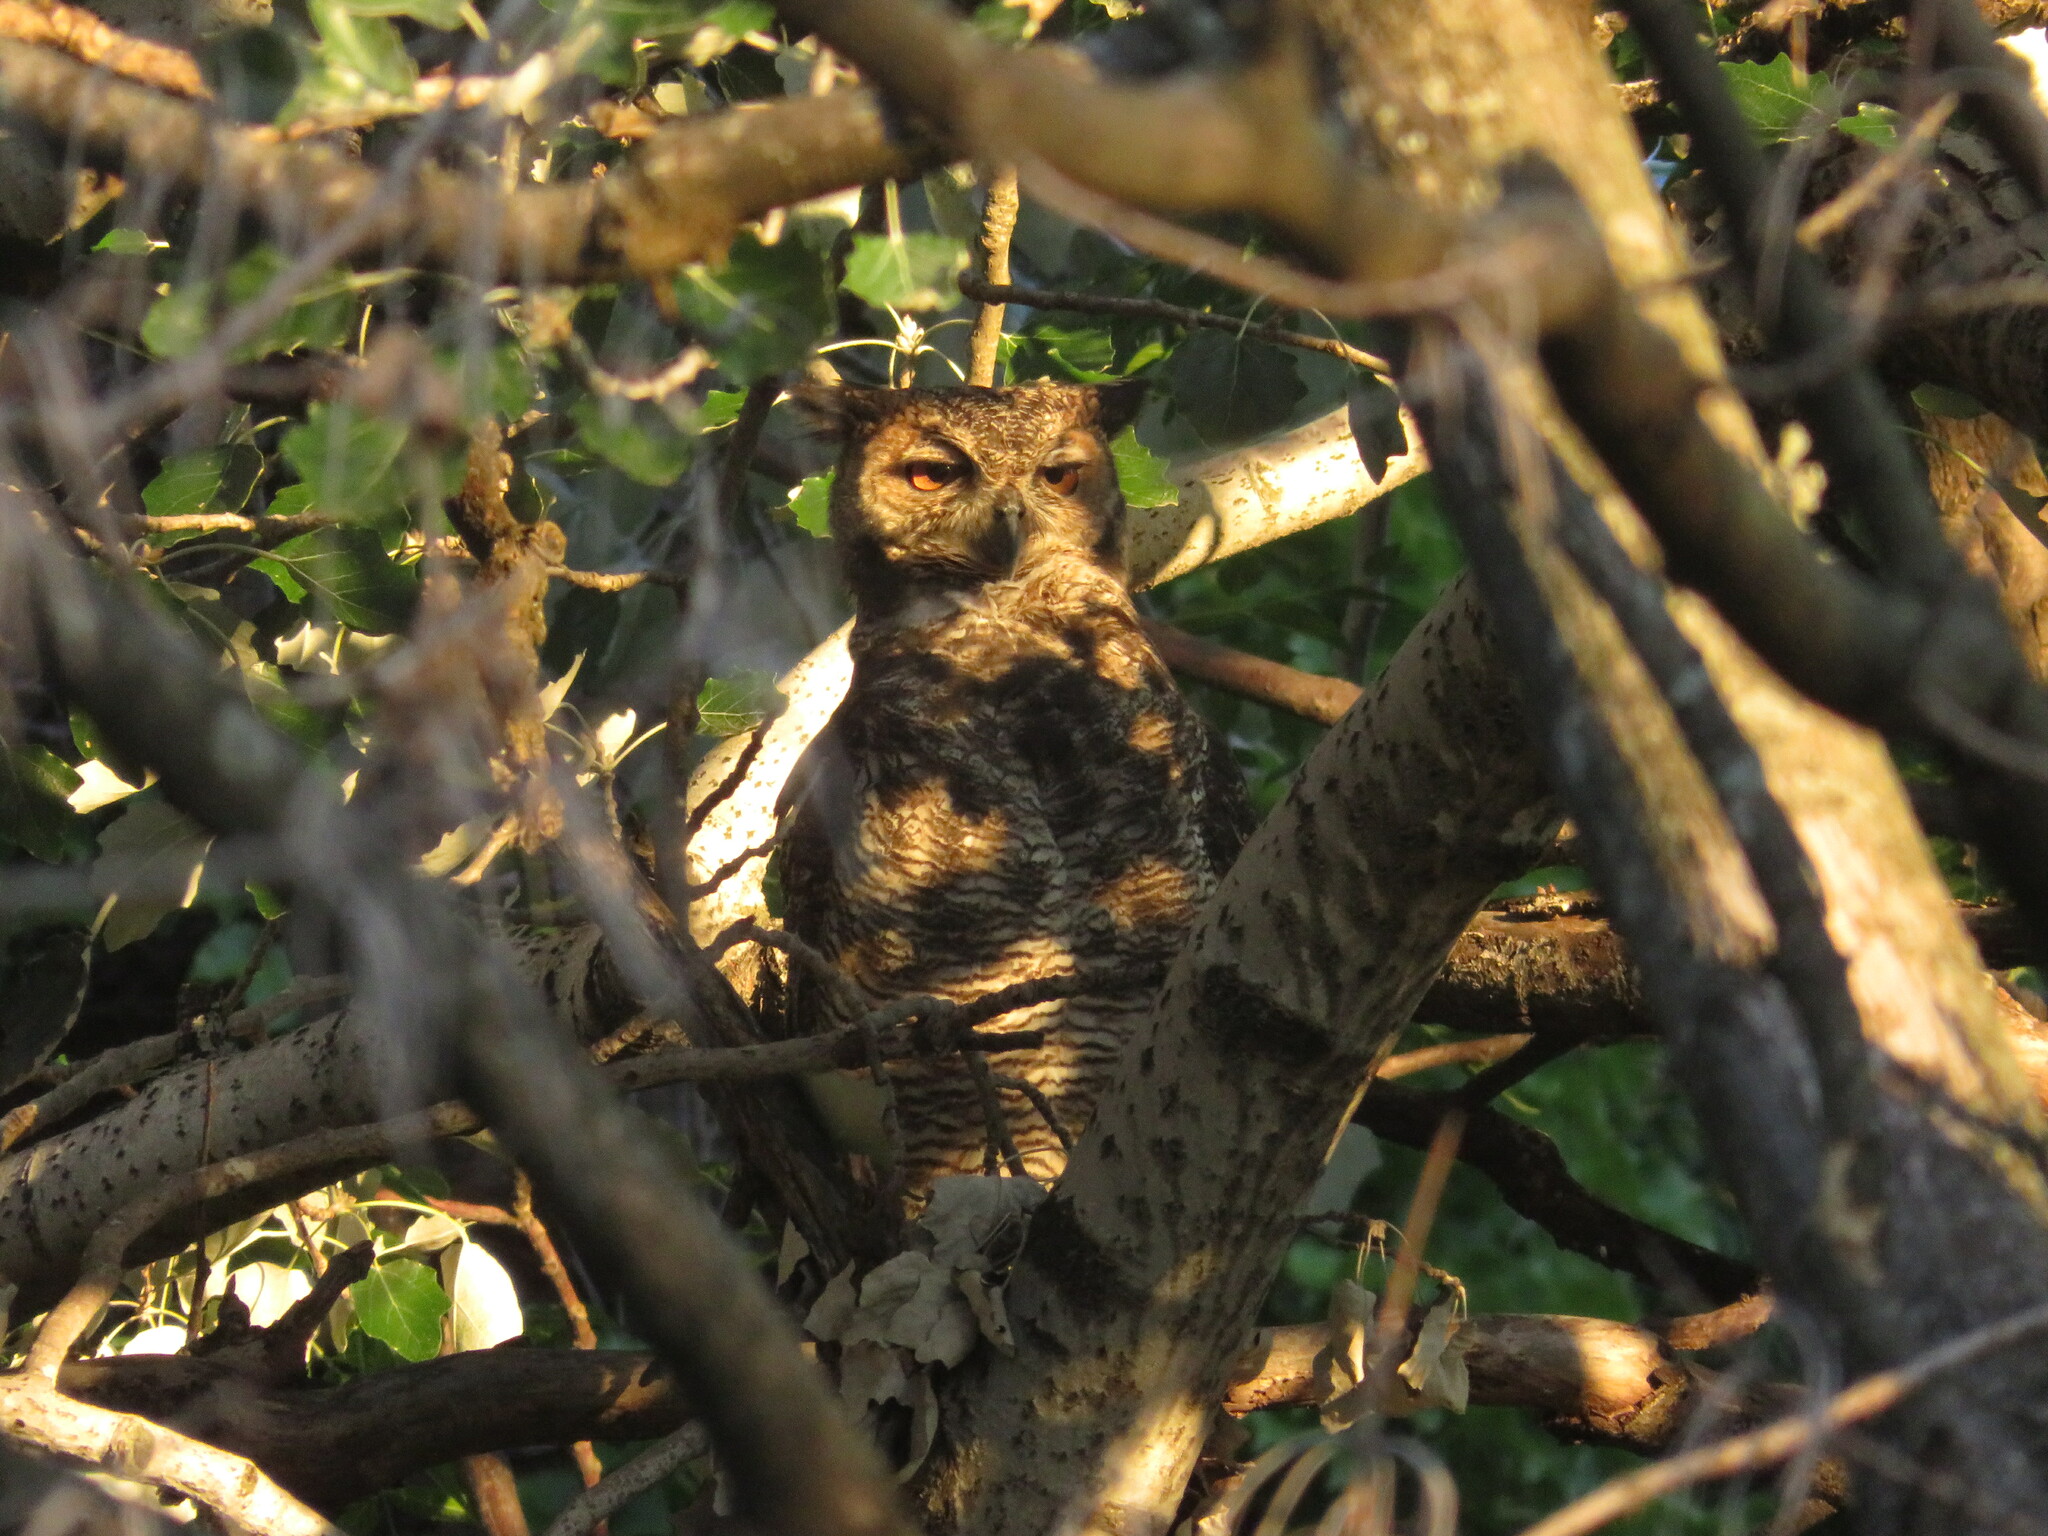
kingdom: Animalia
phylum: Chordata
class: Aves
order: Strigiformes
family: Strigidae
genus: Bubo
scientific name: Bubo virginianus
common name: Great horned owl
